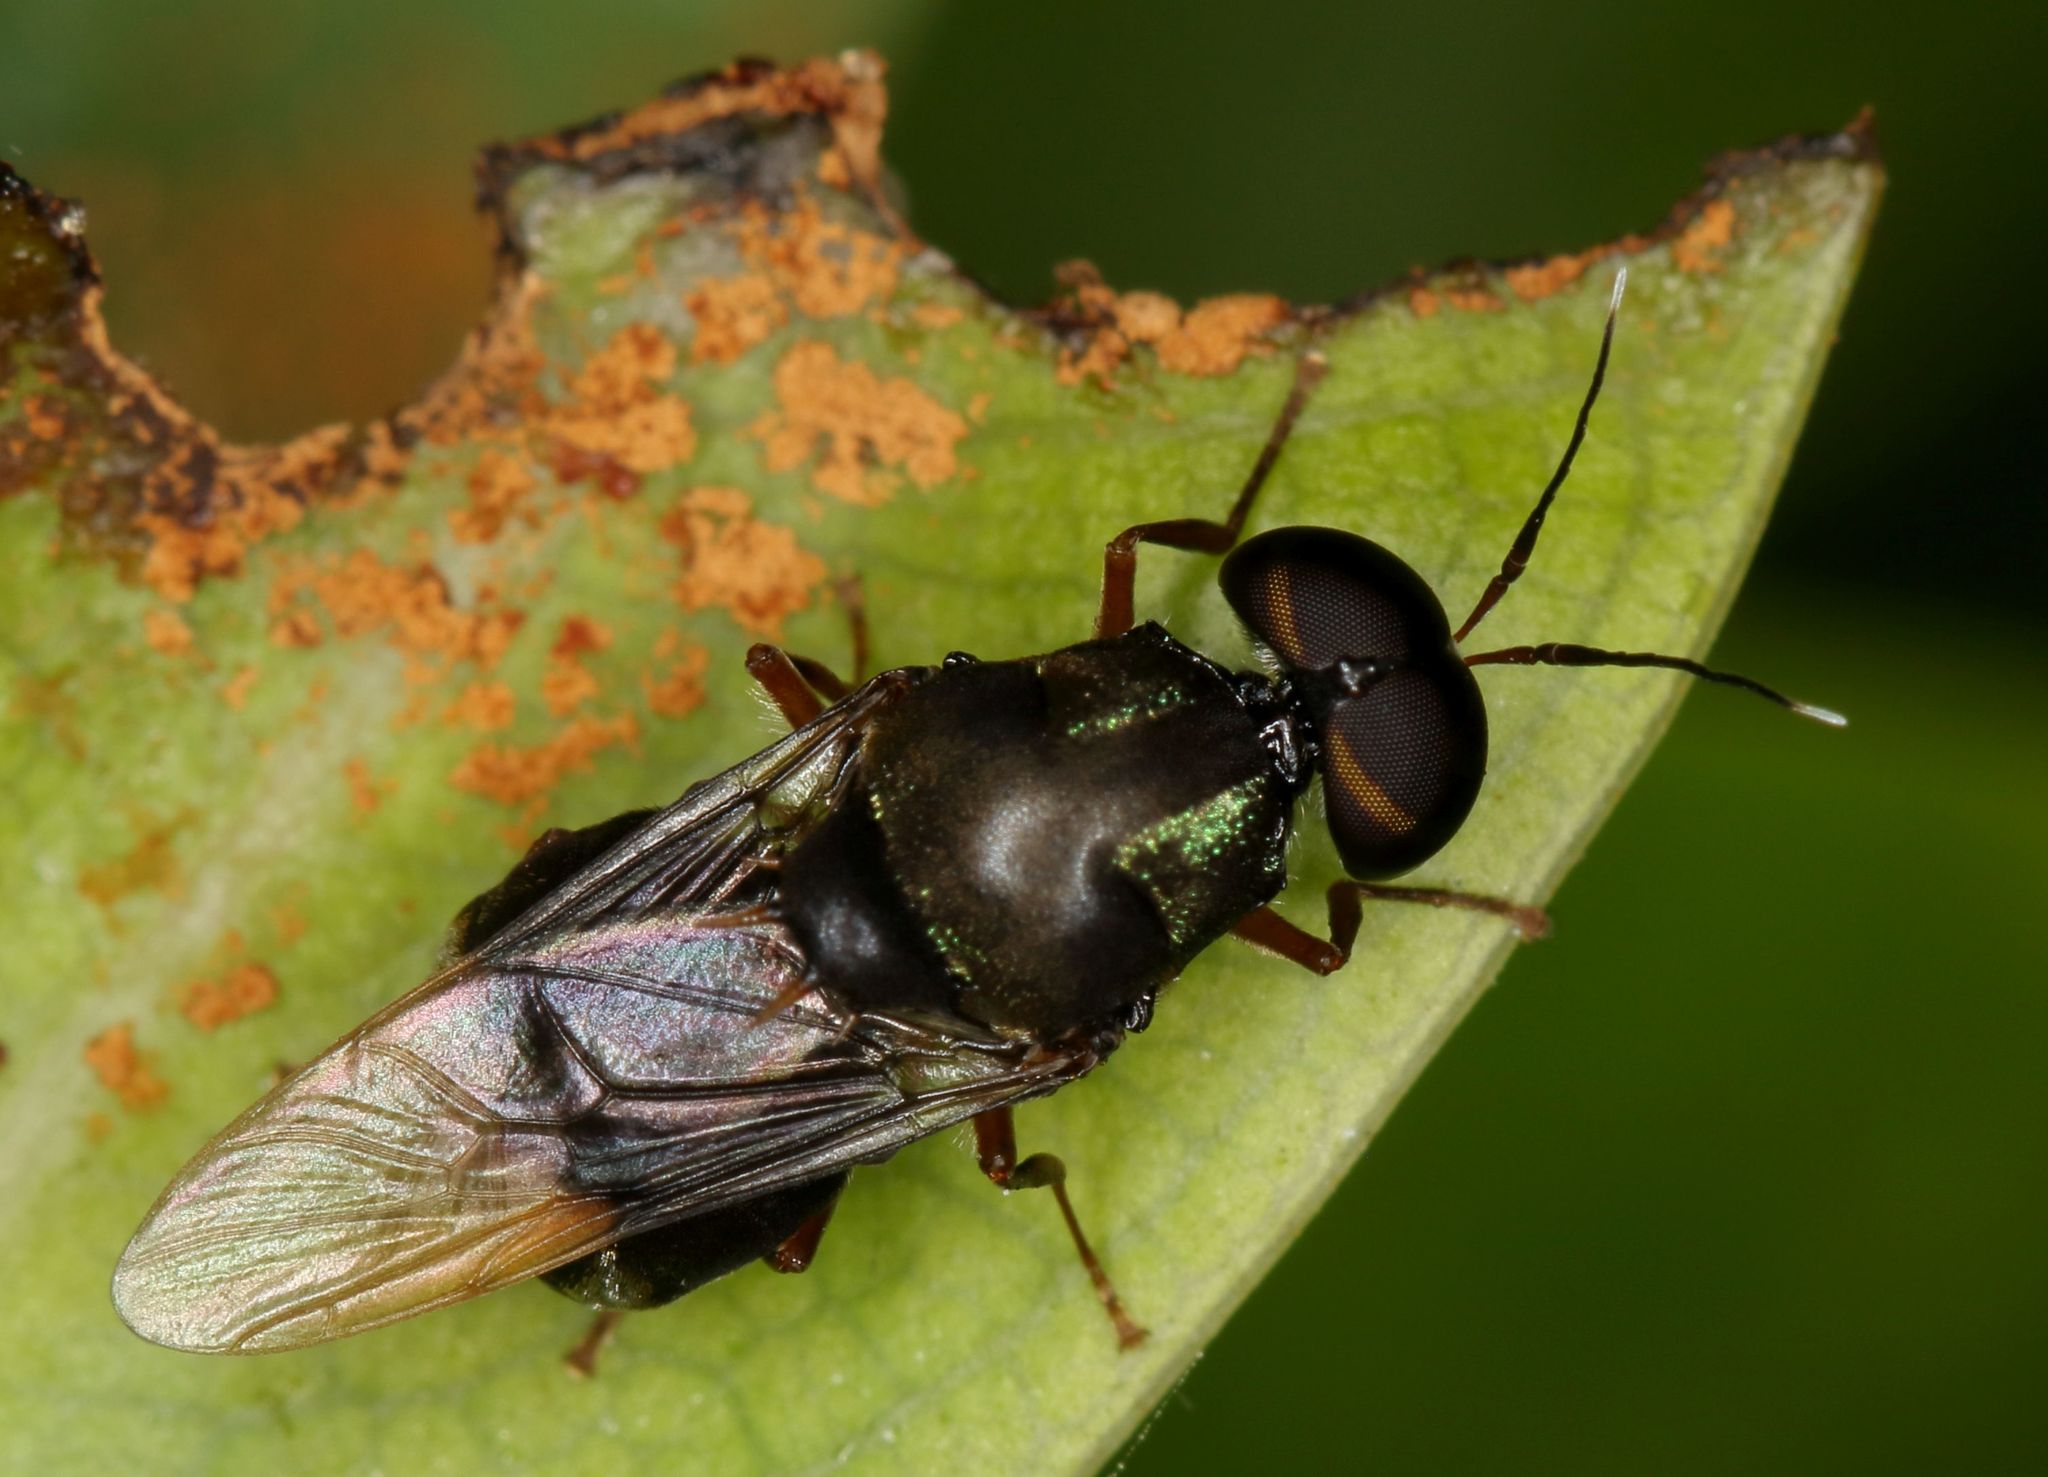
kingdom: Animalia
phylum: Arthropoda
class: Insecta
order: Diptera
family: Stratiomyidae
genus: Isomerocera
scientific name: Isomerocera quadrilineata
